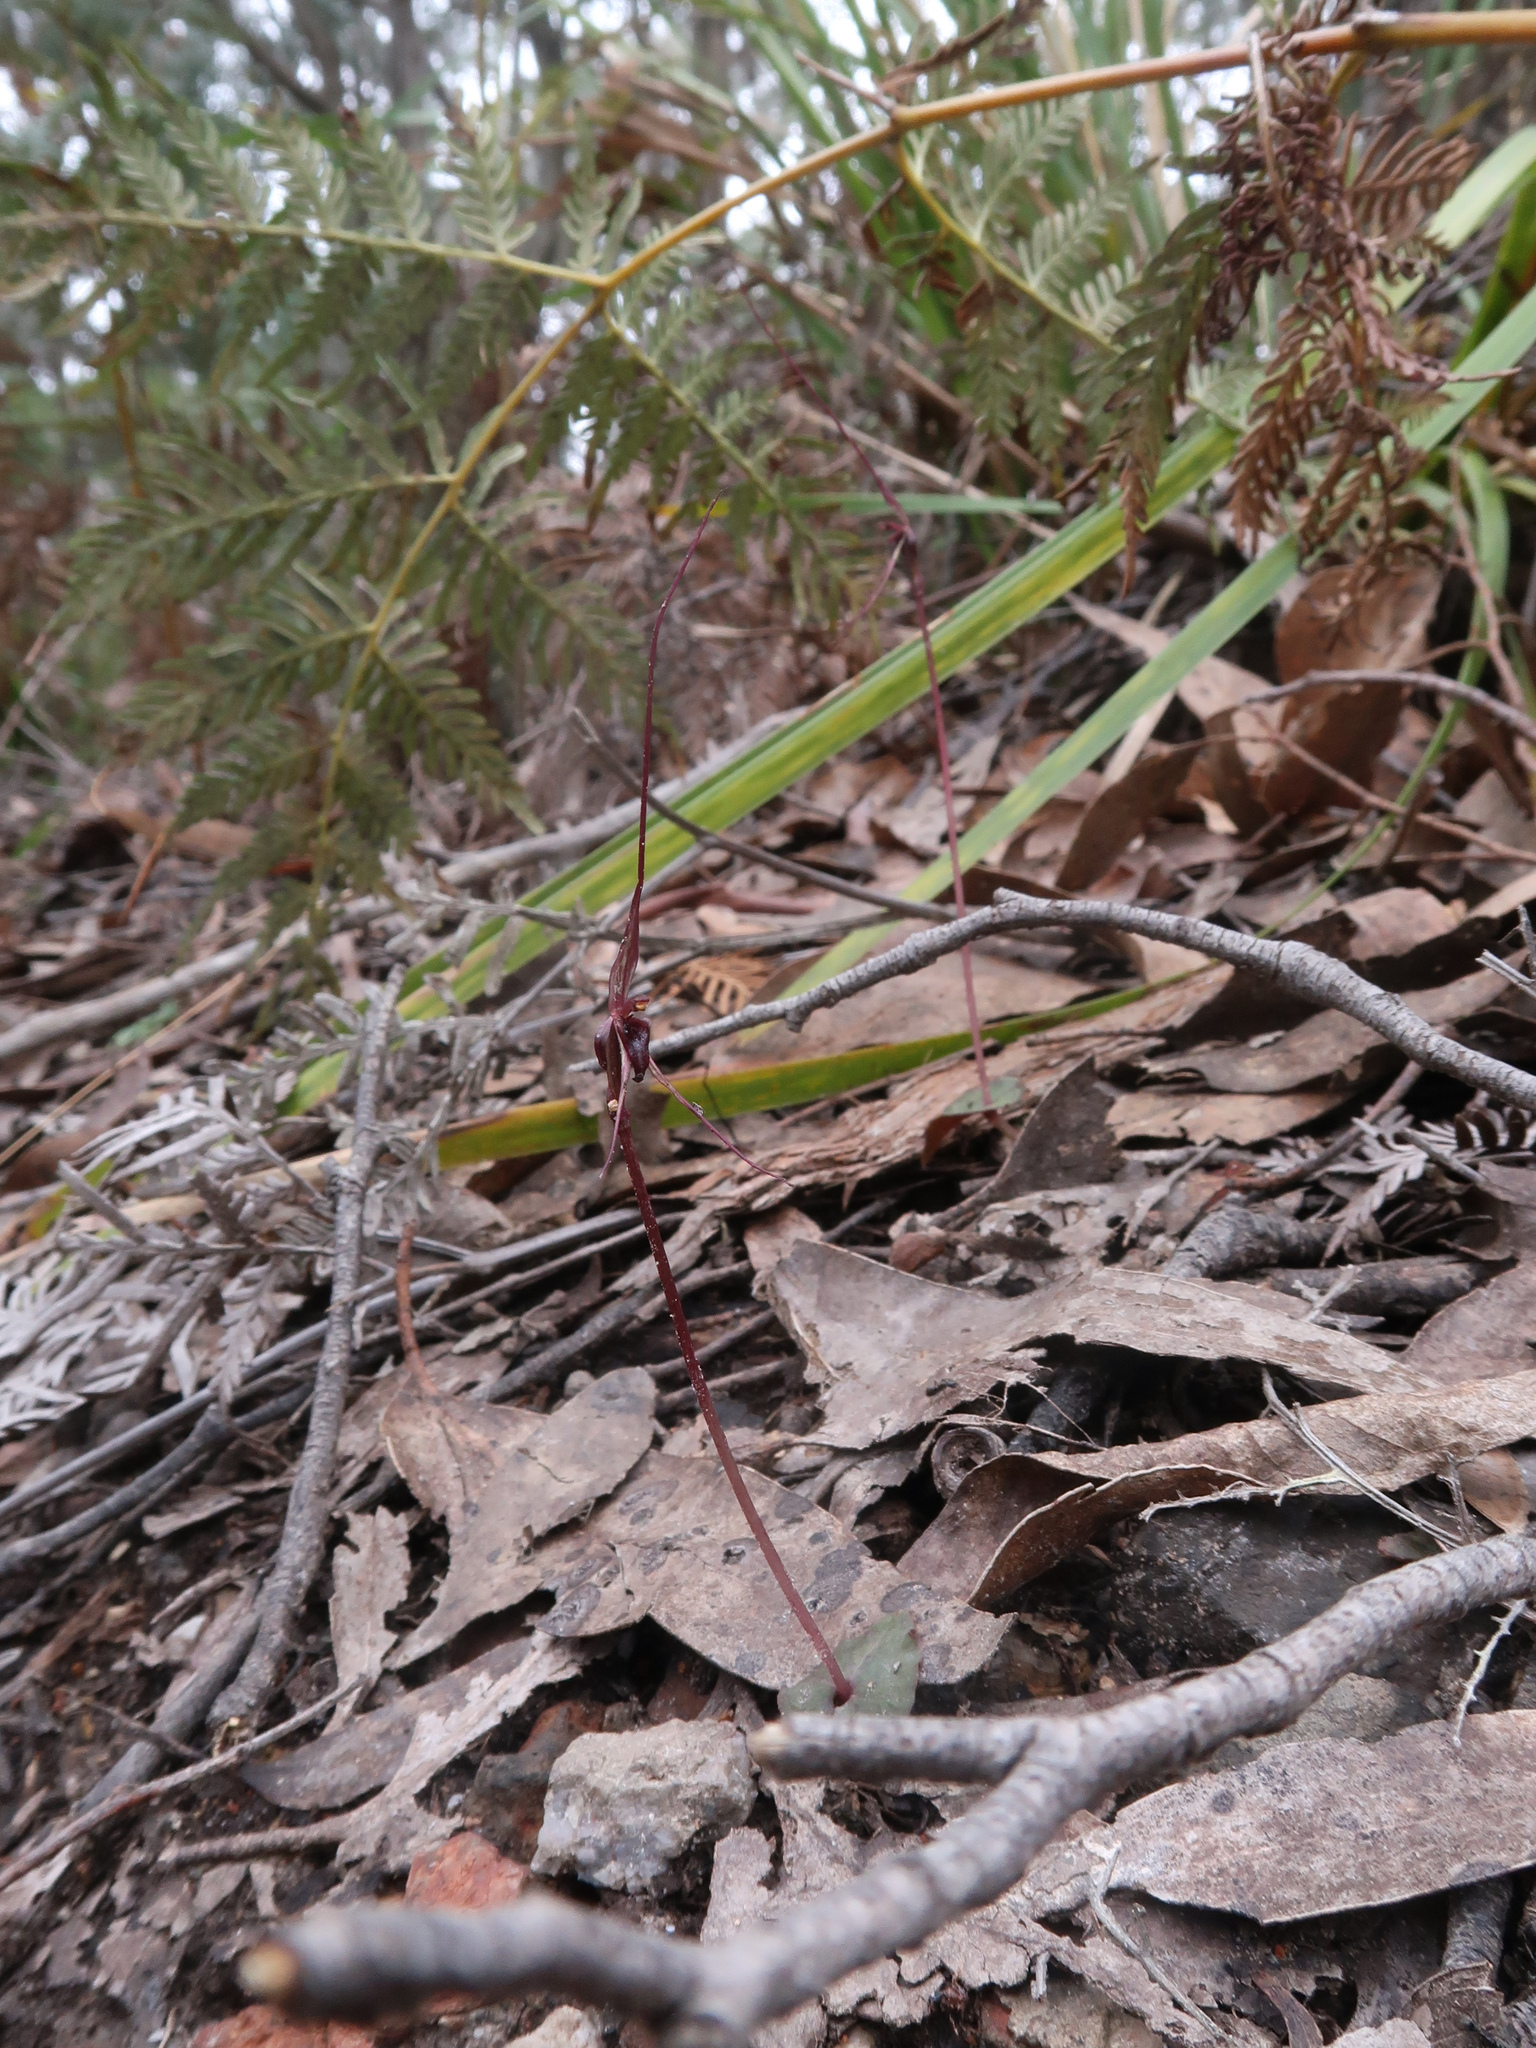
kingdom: Plantae
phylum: Tracheophyta
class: Liliopsida
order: Asparagales
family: Orchidaceae
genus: Acianthus
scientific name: Acianthus caudatus
